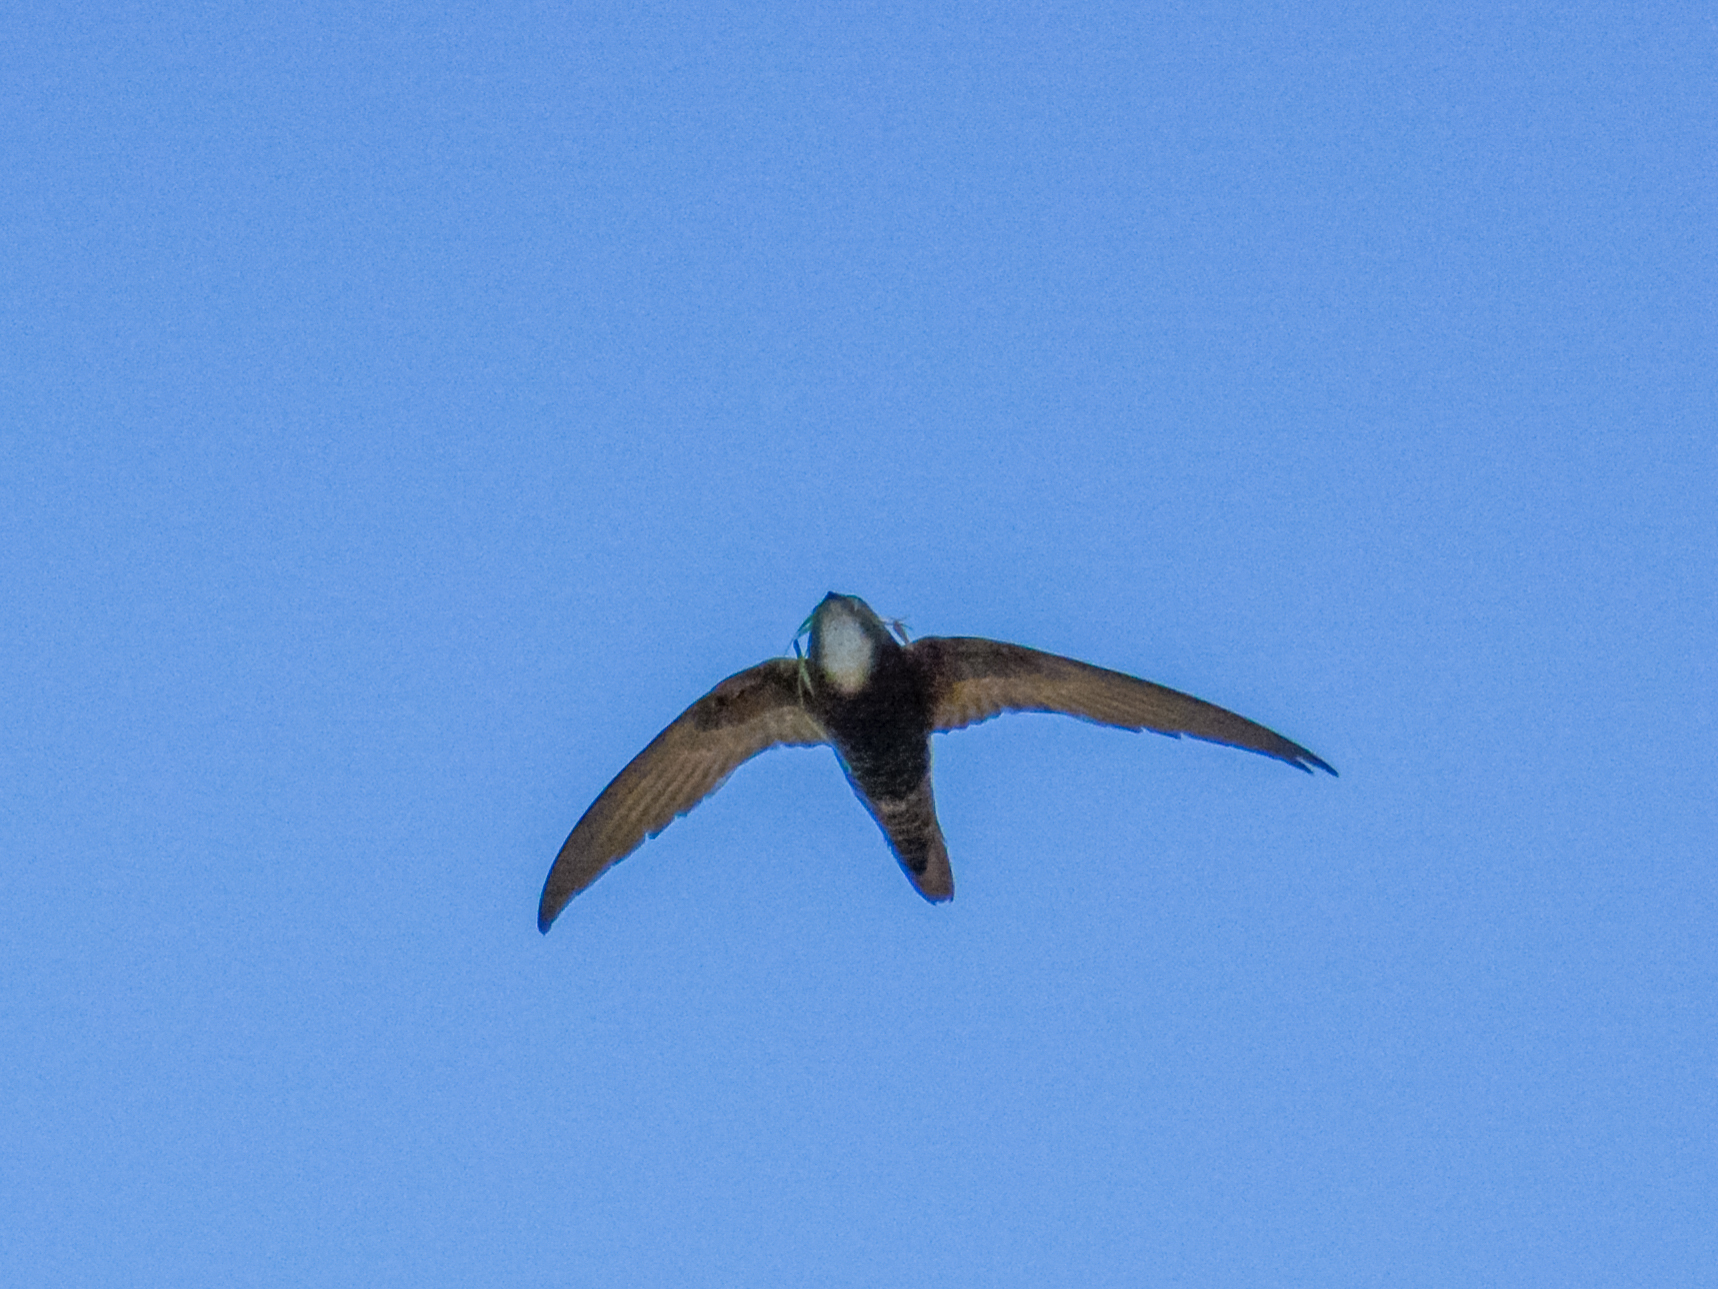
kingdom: Animalia
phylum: Chordata
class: Aves
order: Apodiformes
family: Apodidae
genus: Apus
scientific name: Apus nipalensis
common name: House swift
